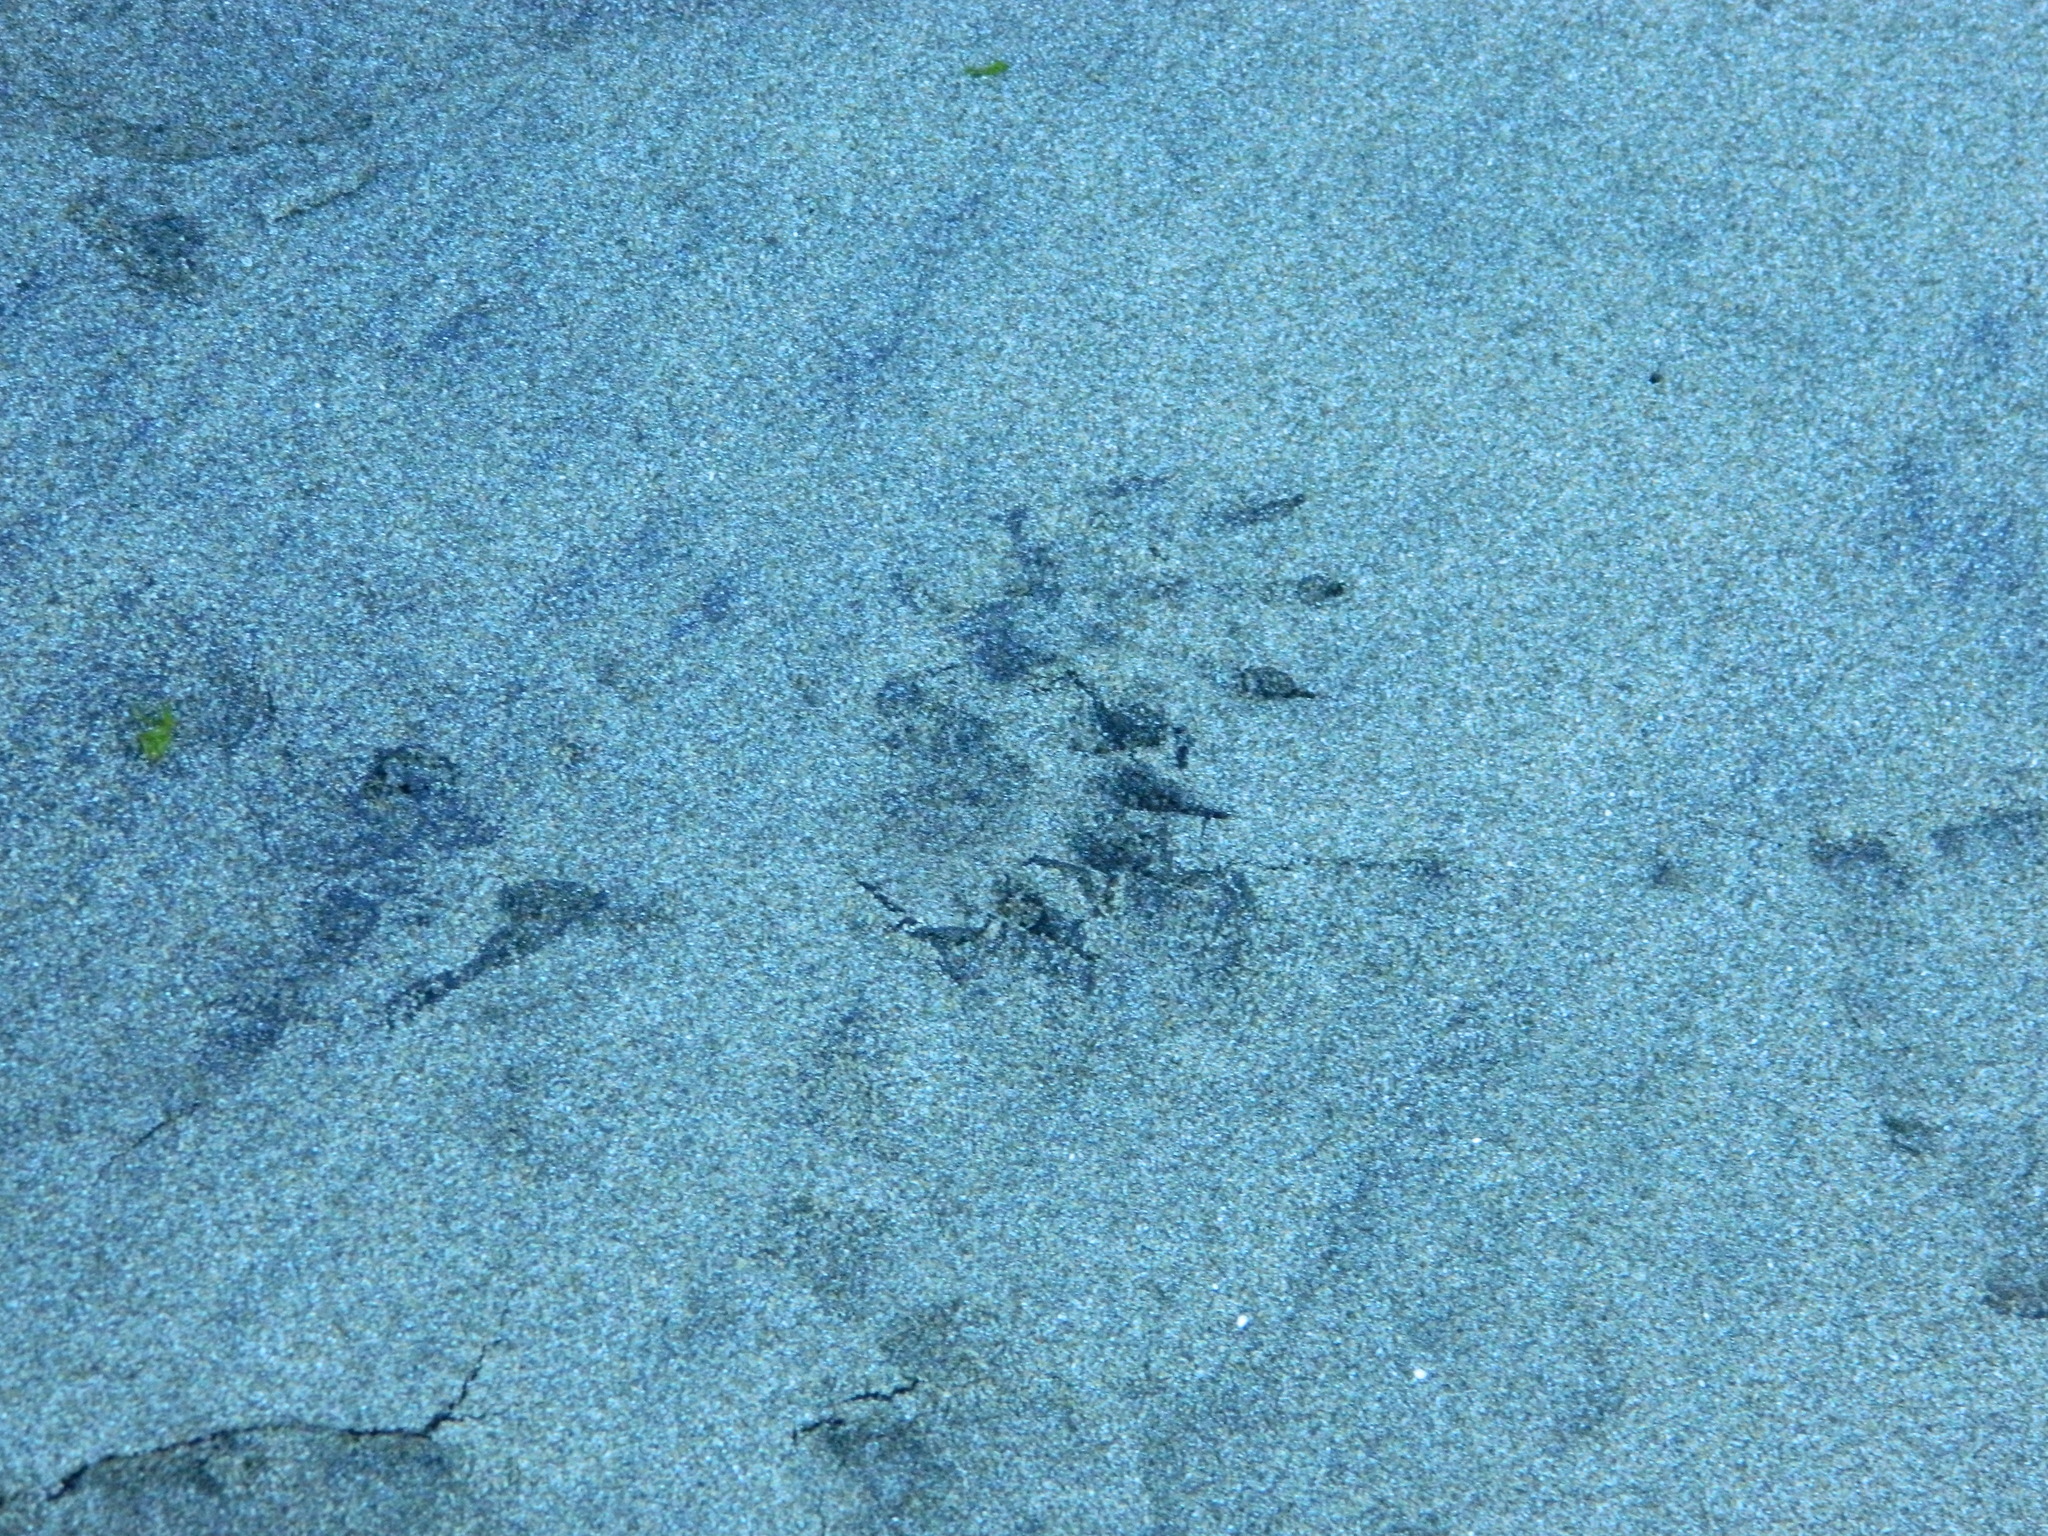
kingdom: Animalia
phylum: Chordata
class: Mammalia
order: Carnivora
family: Procyonidae
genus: Procyon
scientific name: Procyon lotor
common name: Raccoon
